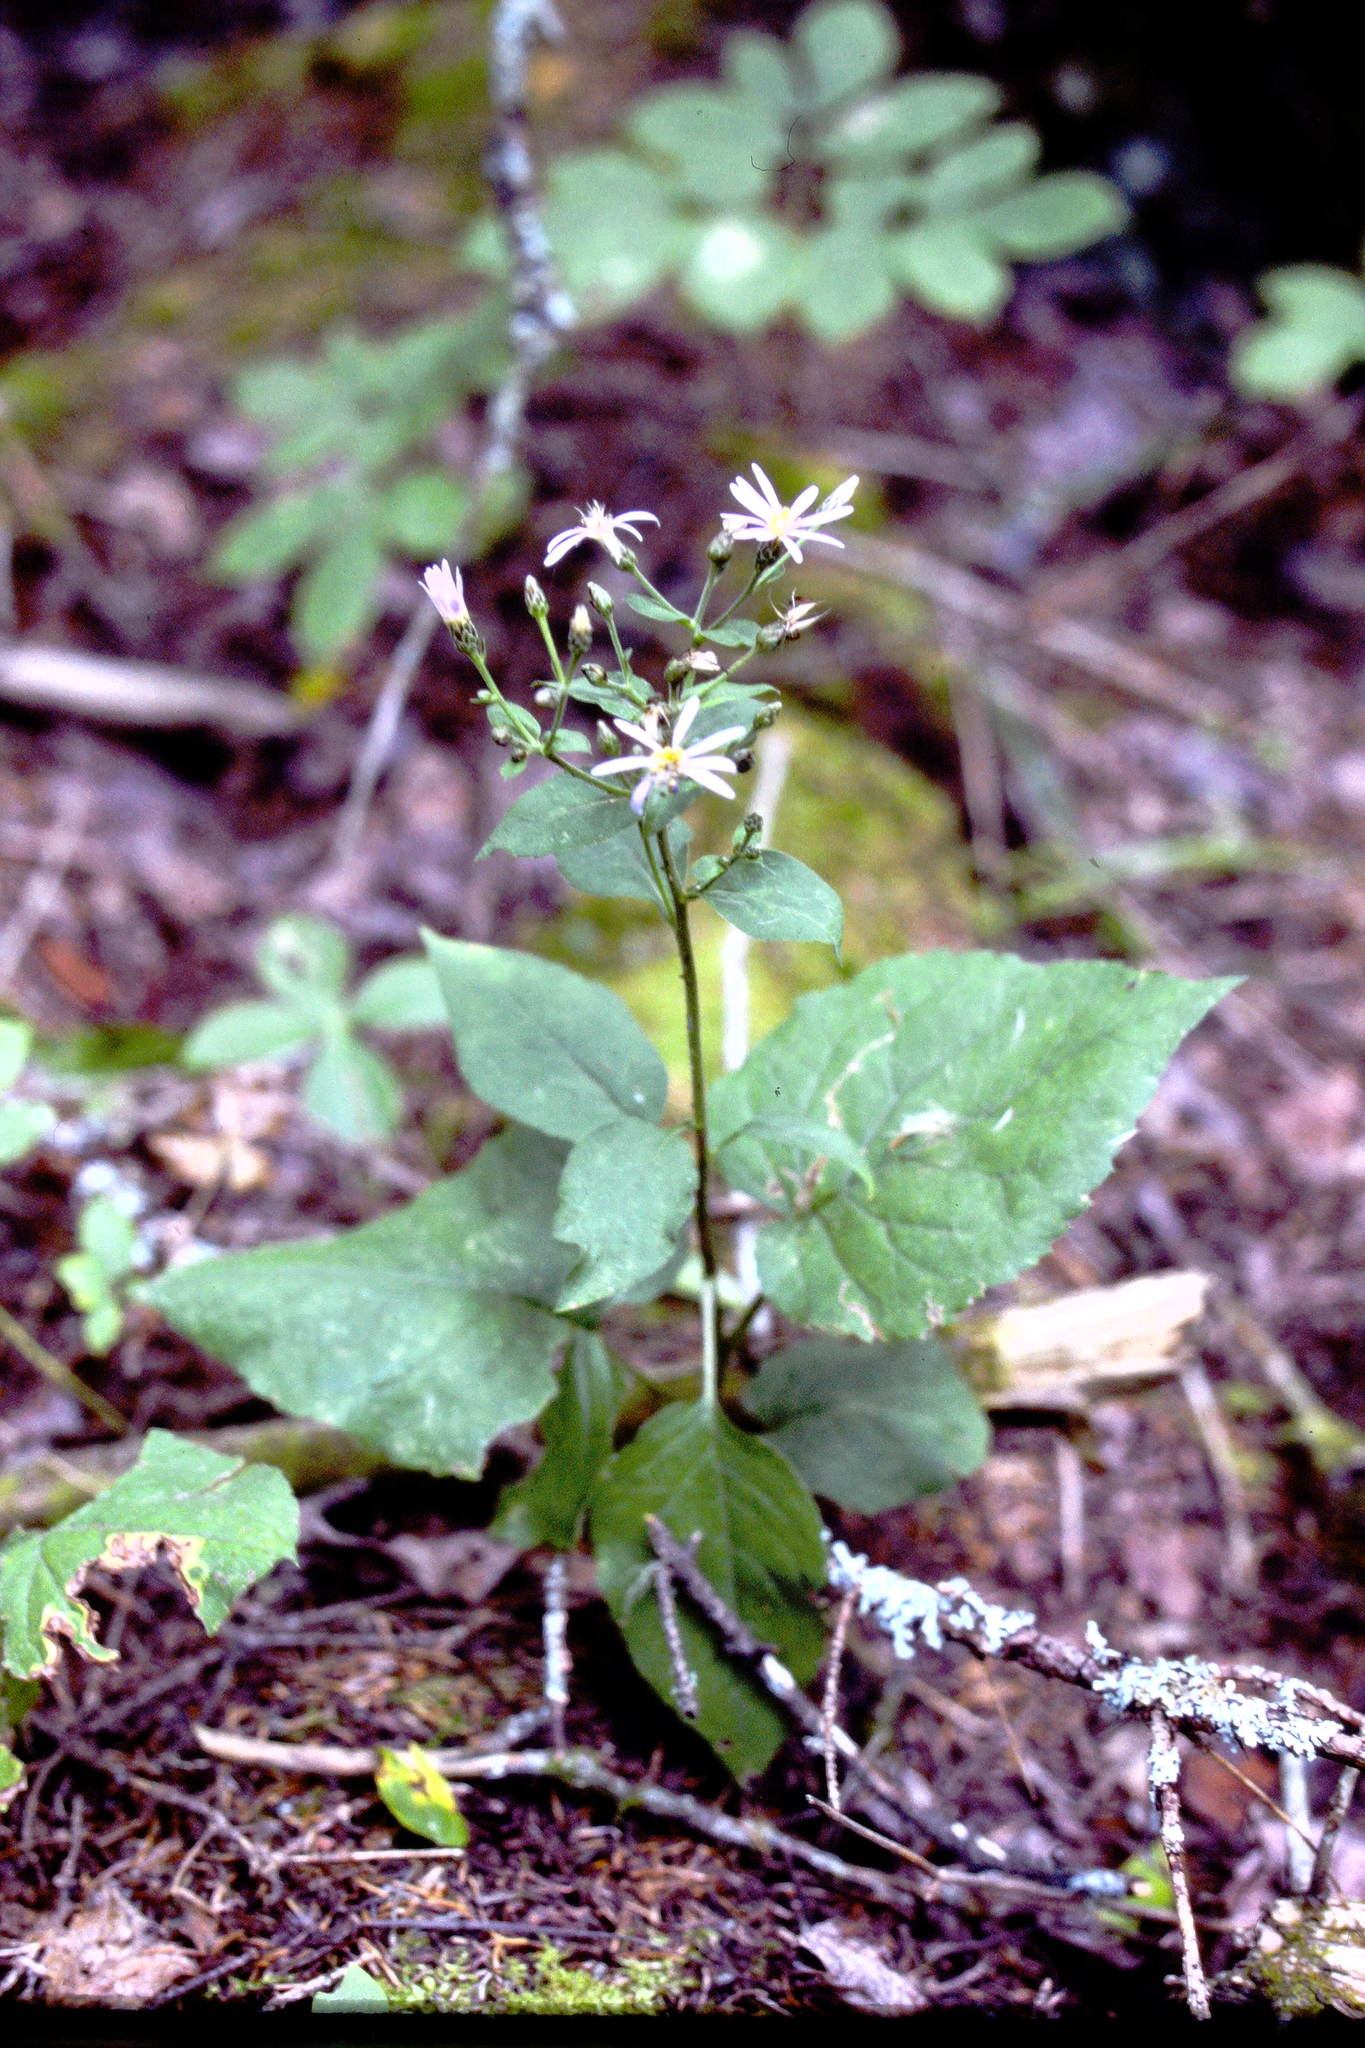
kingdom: Plantae
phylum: Tracheophyta
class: Magnoliopsida
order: Asterales
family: Asteraceae
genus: Eurybia
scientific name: Eurybia macrophylla
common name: Big-leaved aster
